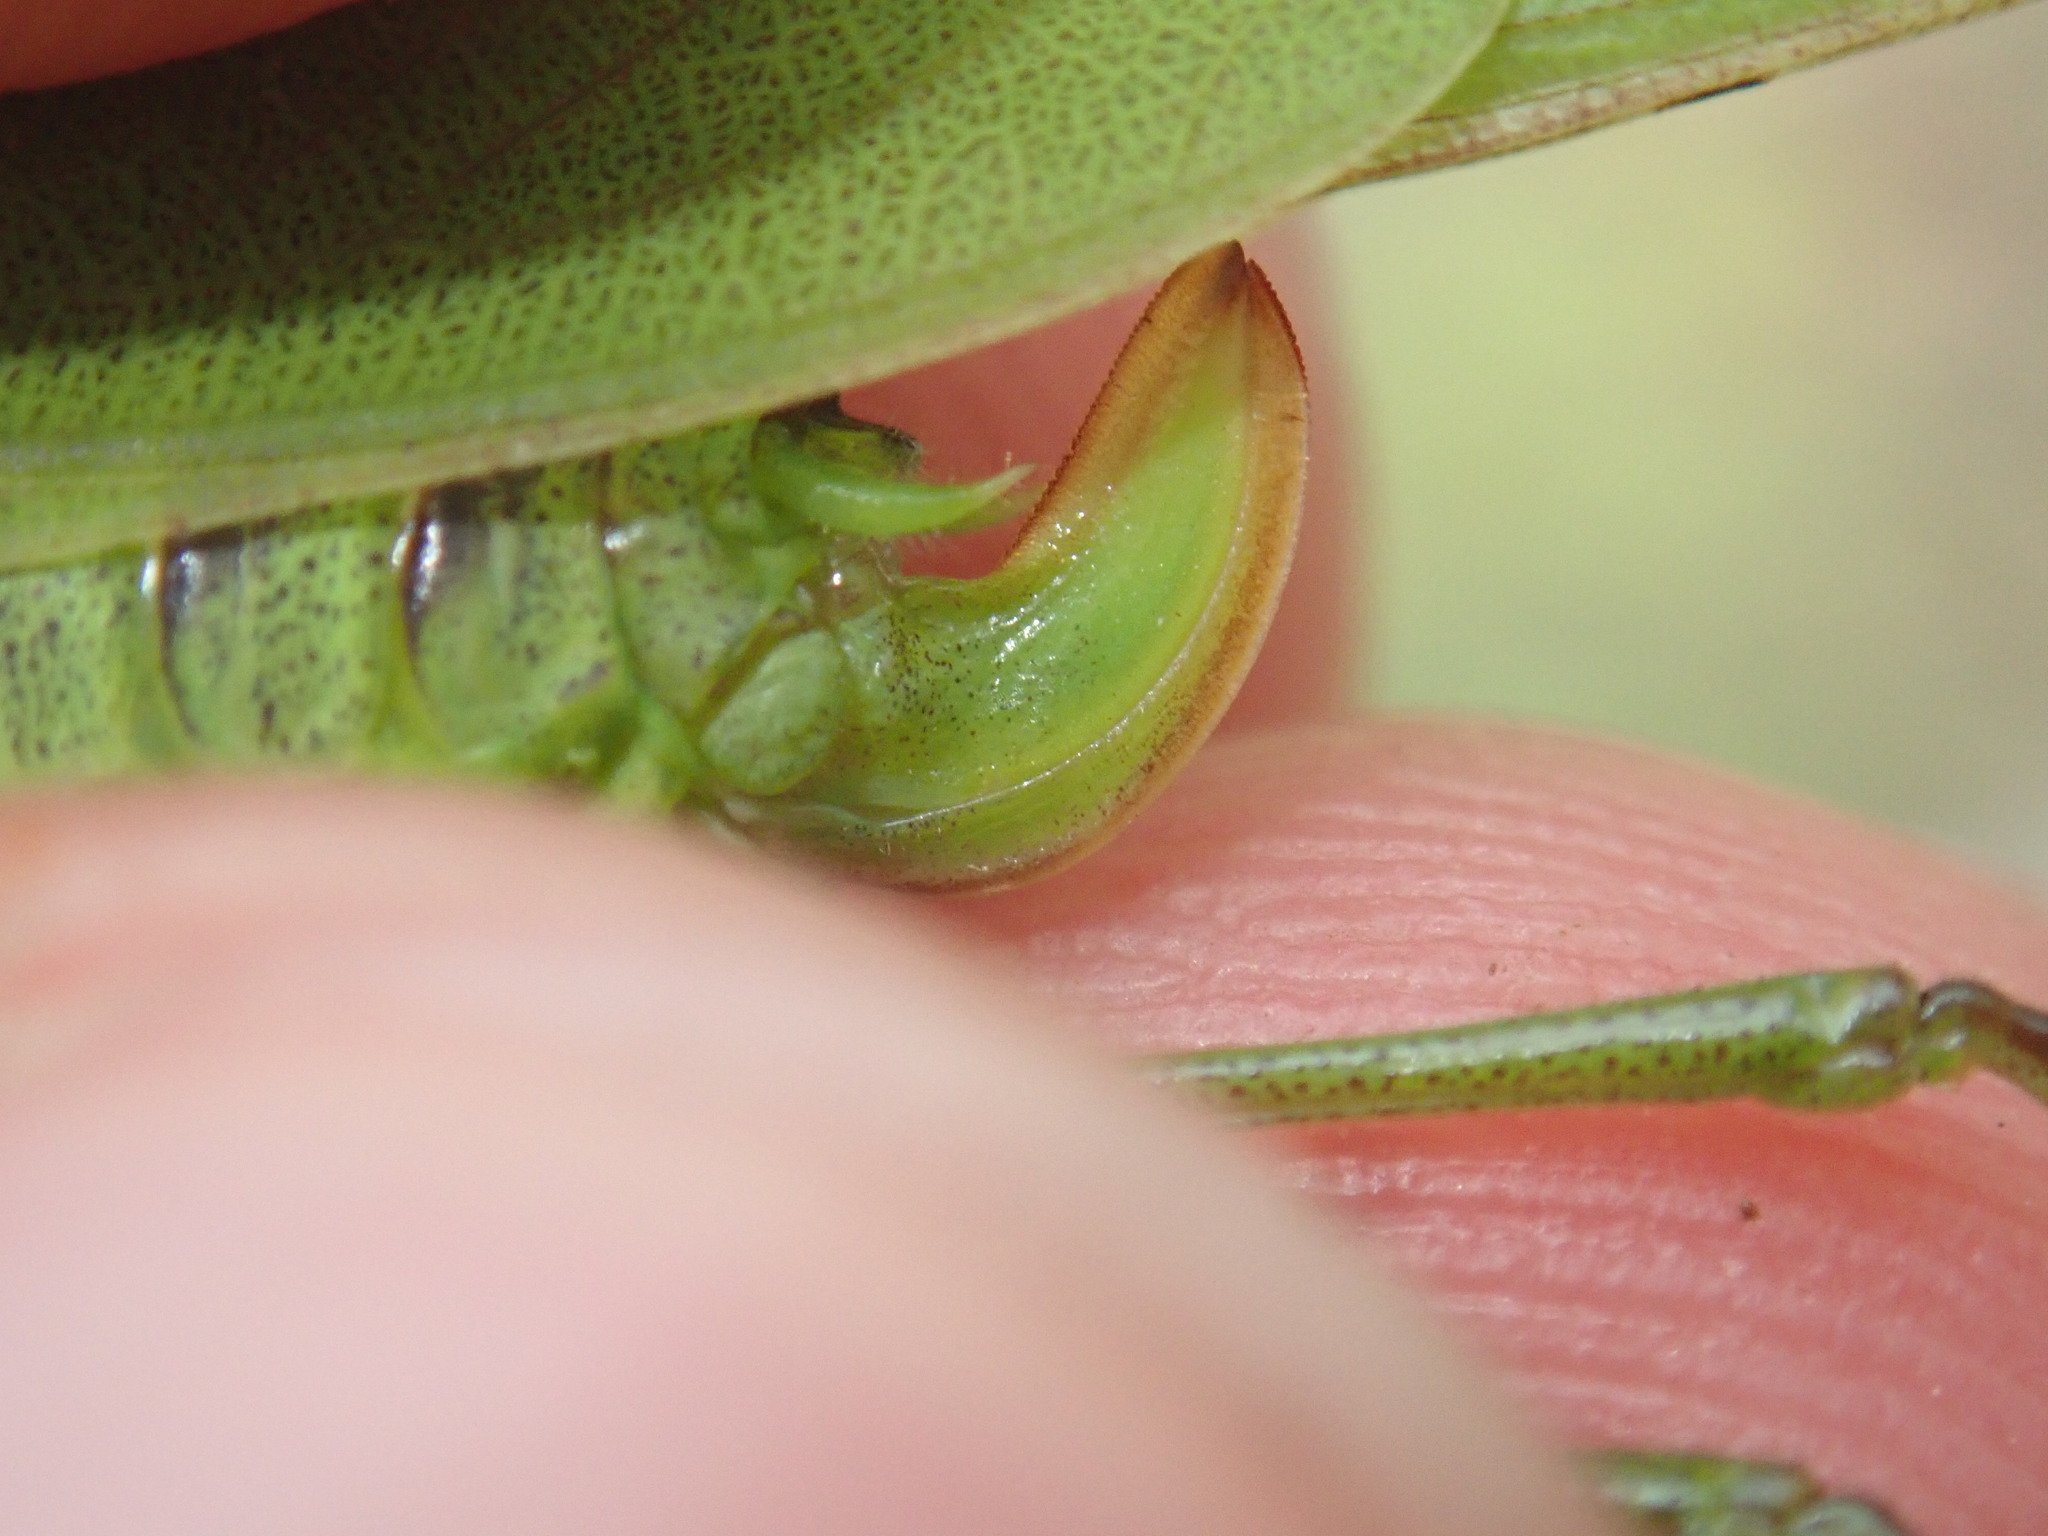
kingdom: Animalia
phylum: Arthropoda
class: Insecta
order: Orthoptera
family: Tettigoniidae
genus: Phaneroptera
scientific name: Phaneroptera falcata
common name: Sickle-bearing bush-cricket
